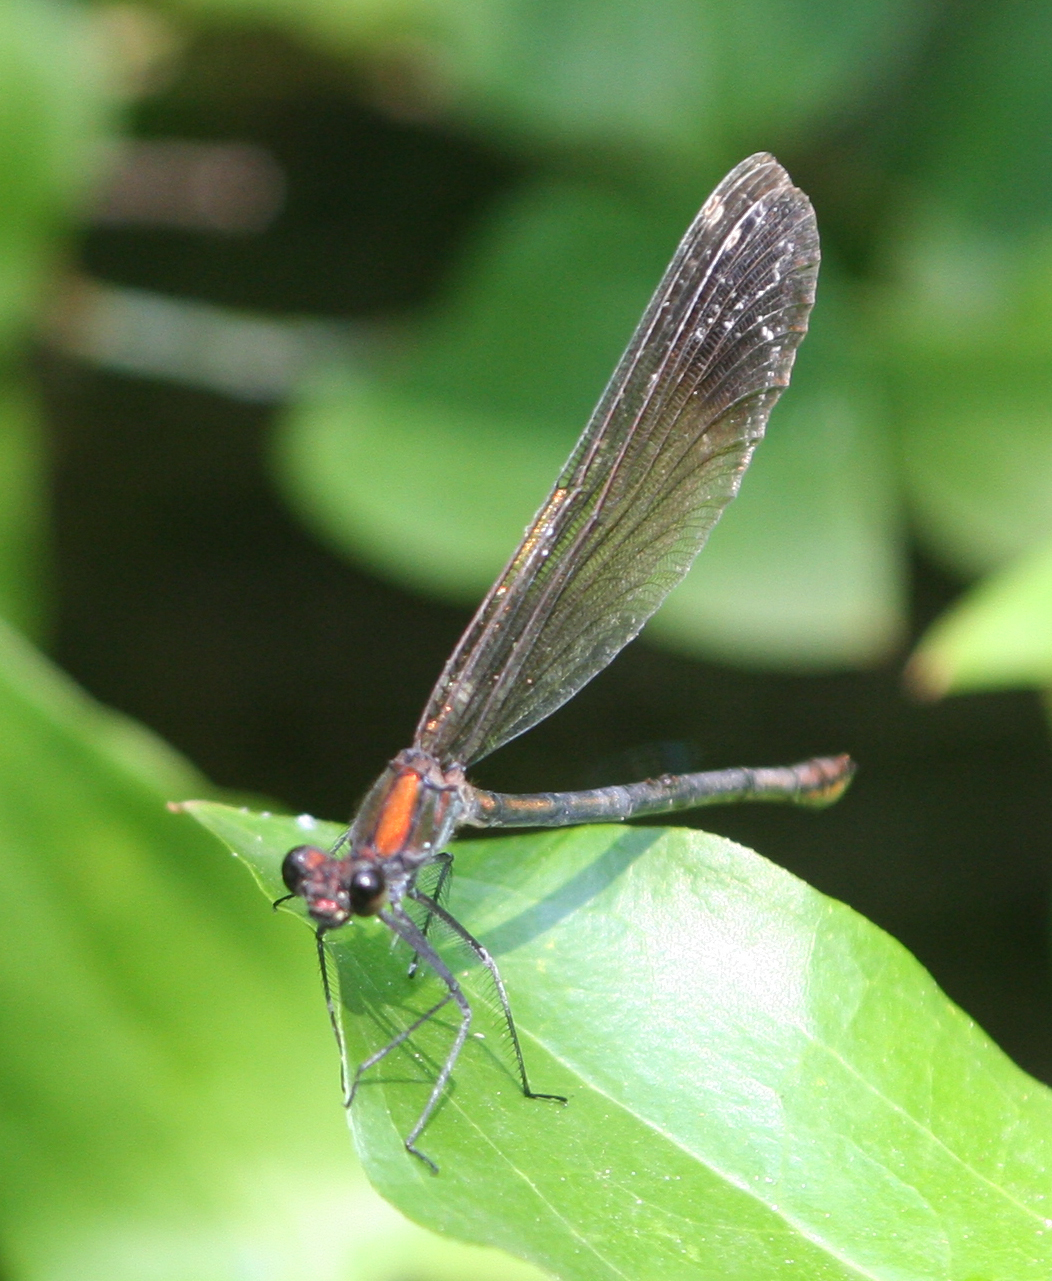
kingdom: Animalia
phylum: Arthropoda
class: Insecta
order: Odonata
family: Calopterygidae
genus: Calopteryx
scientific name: Calopteryx virgo
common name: Beautiful demoiselle
